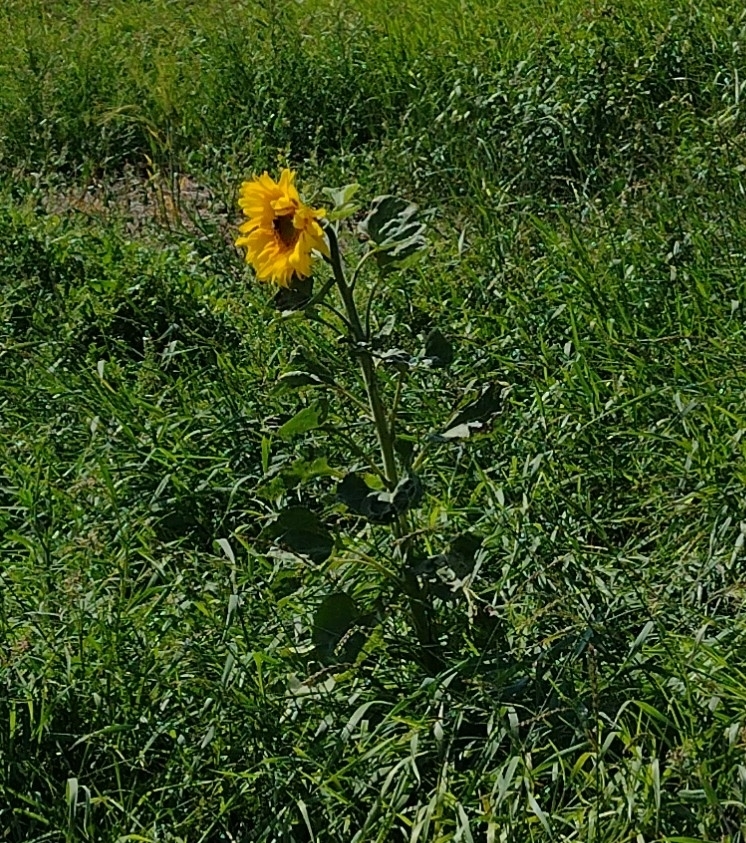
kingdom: Plantae
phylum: Tracheophyta
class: Magnoliopsida
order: Asterales
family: Asteraceae
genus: Helianthus
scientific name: Helianthus annuus
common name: Sunflower
